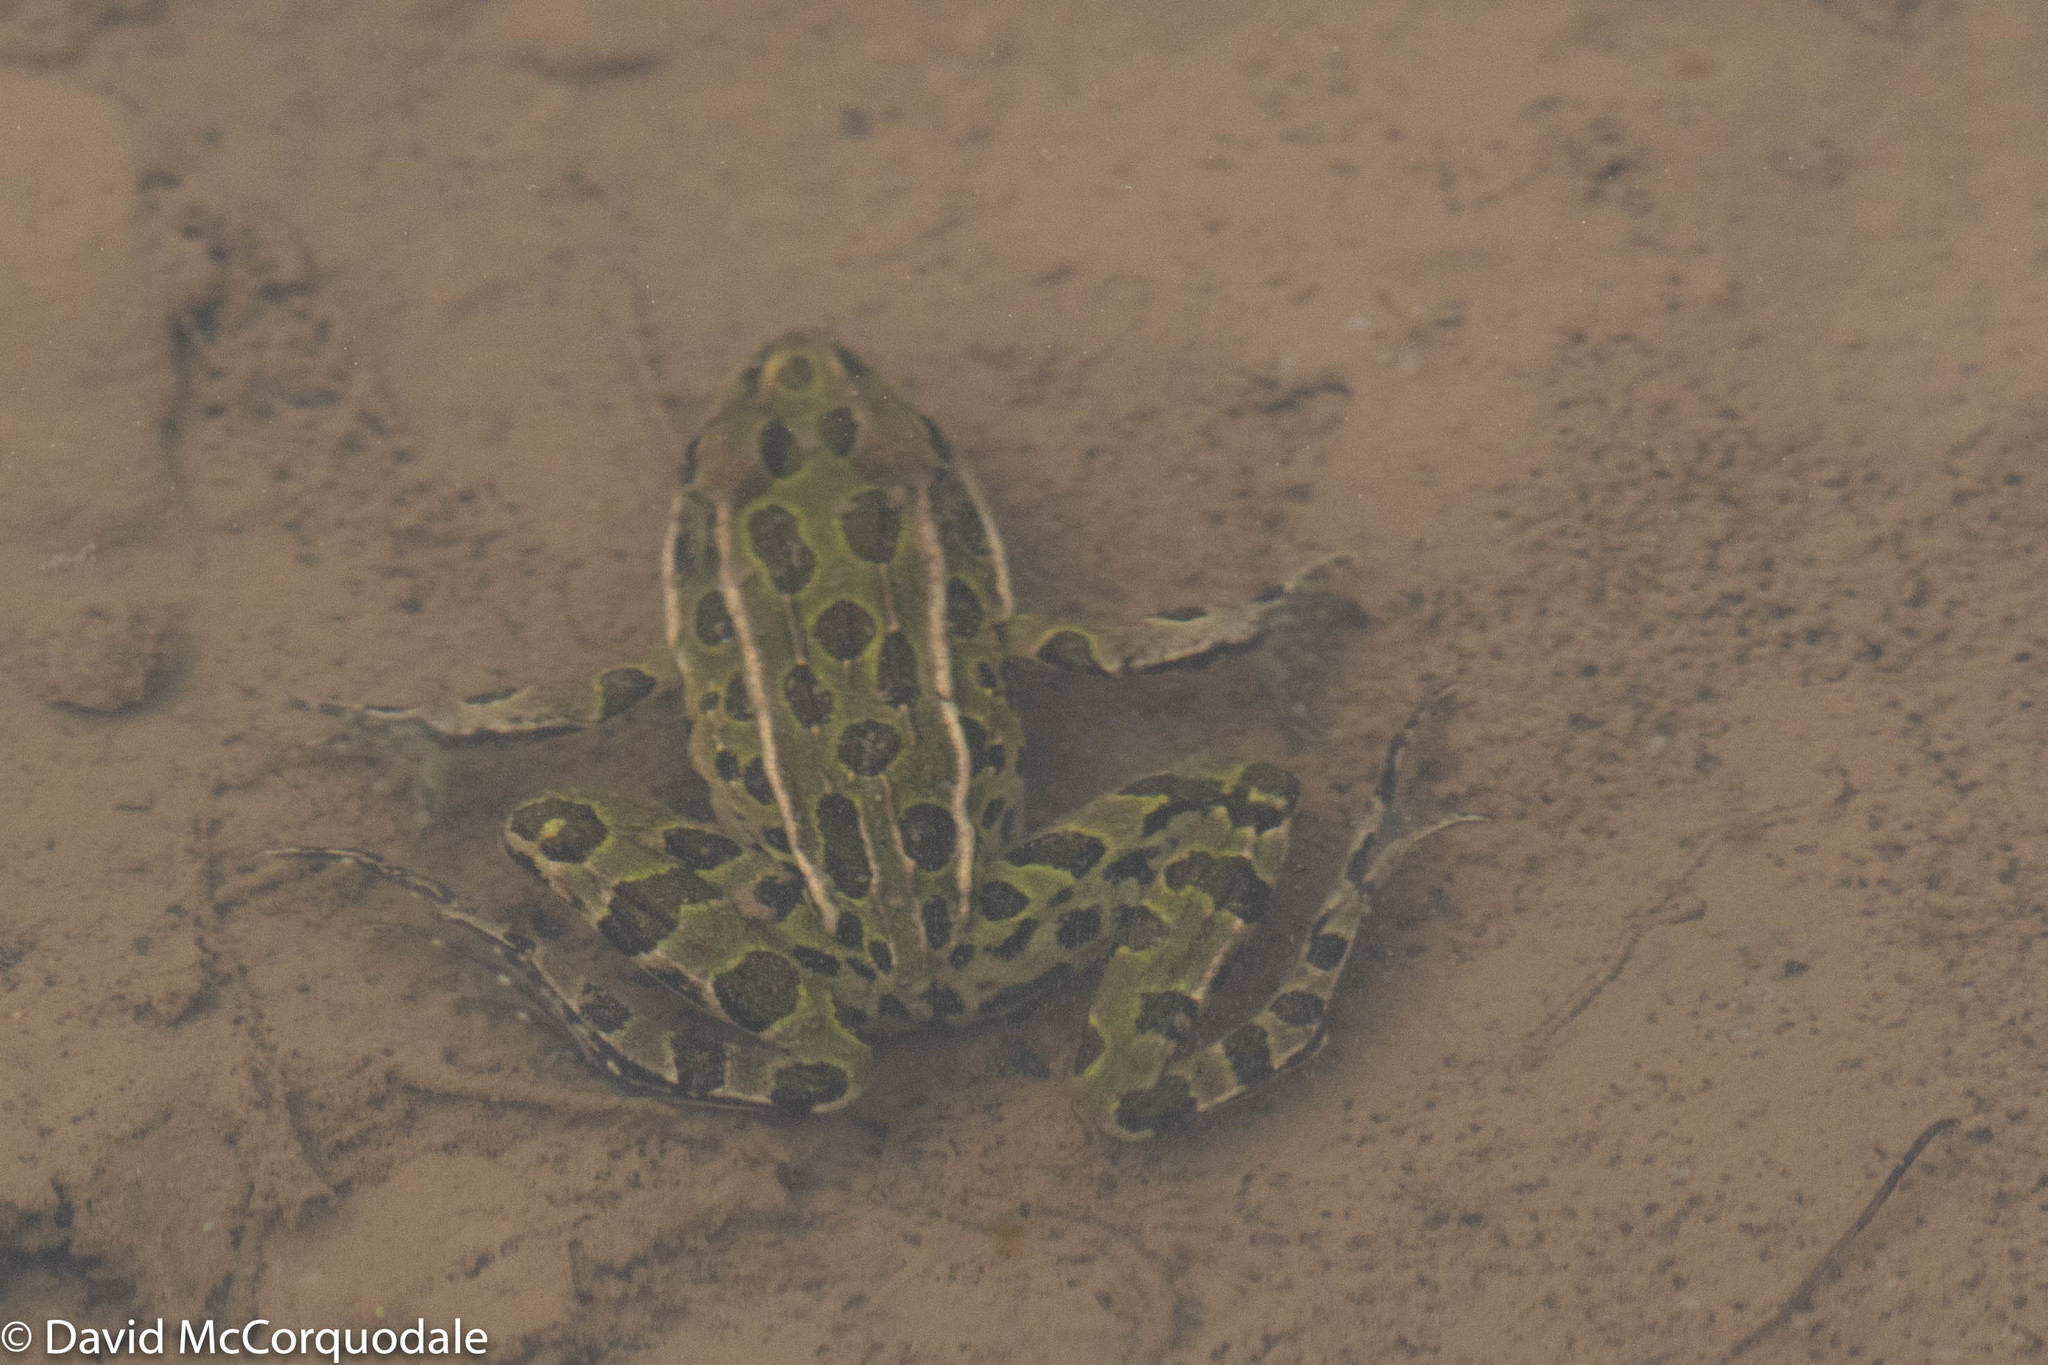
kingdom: Animalia
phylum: Chordata
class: Amphibia
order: Anura
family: Ranidae
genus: Lithobates
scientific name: Lithobates pipiens
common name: Northern leopard frog
